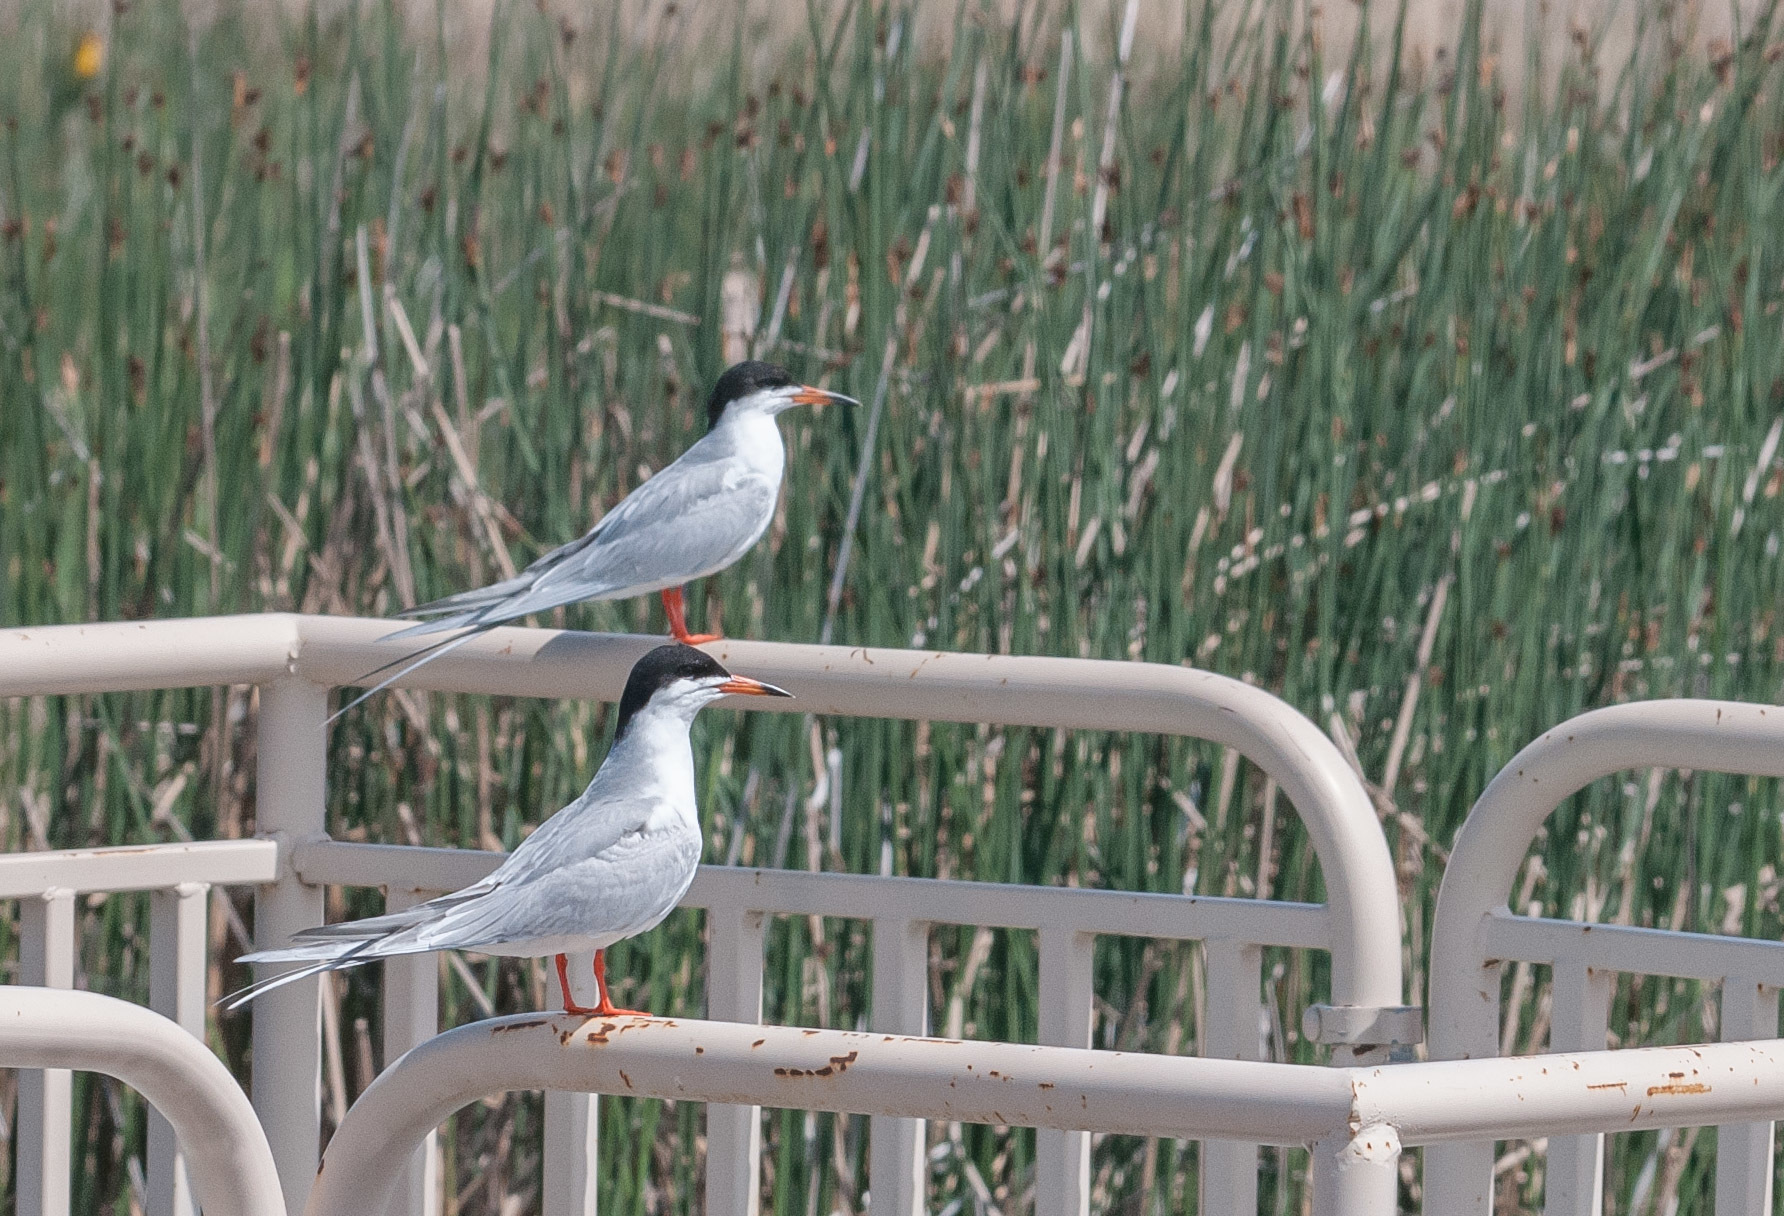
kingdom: Animalia
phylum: Chordata
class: Aves
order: Charadriiformes
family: Laridae
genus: Sterna
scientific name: Sterna forsteri
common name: Forster's tern
